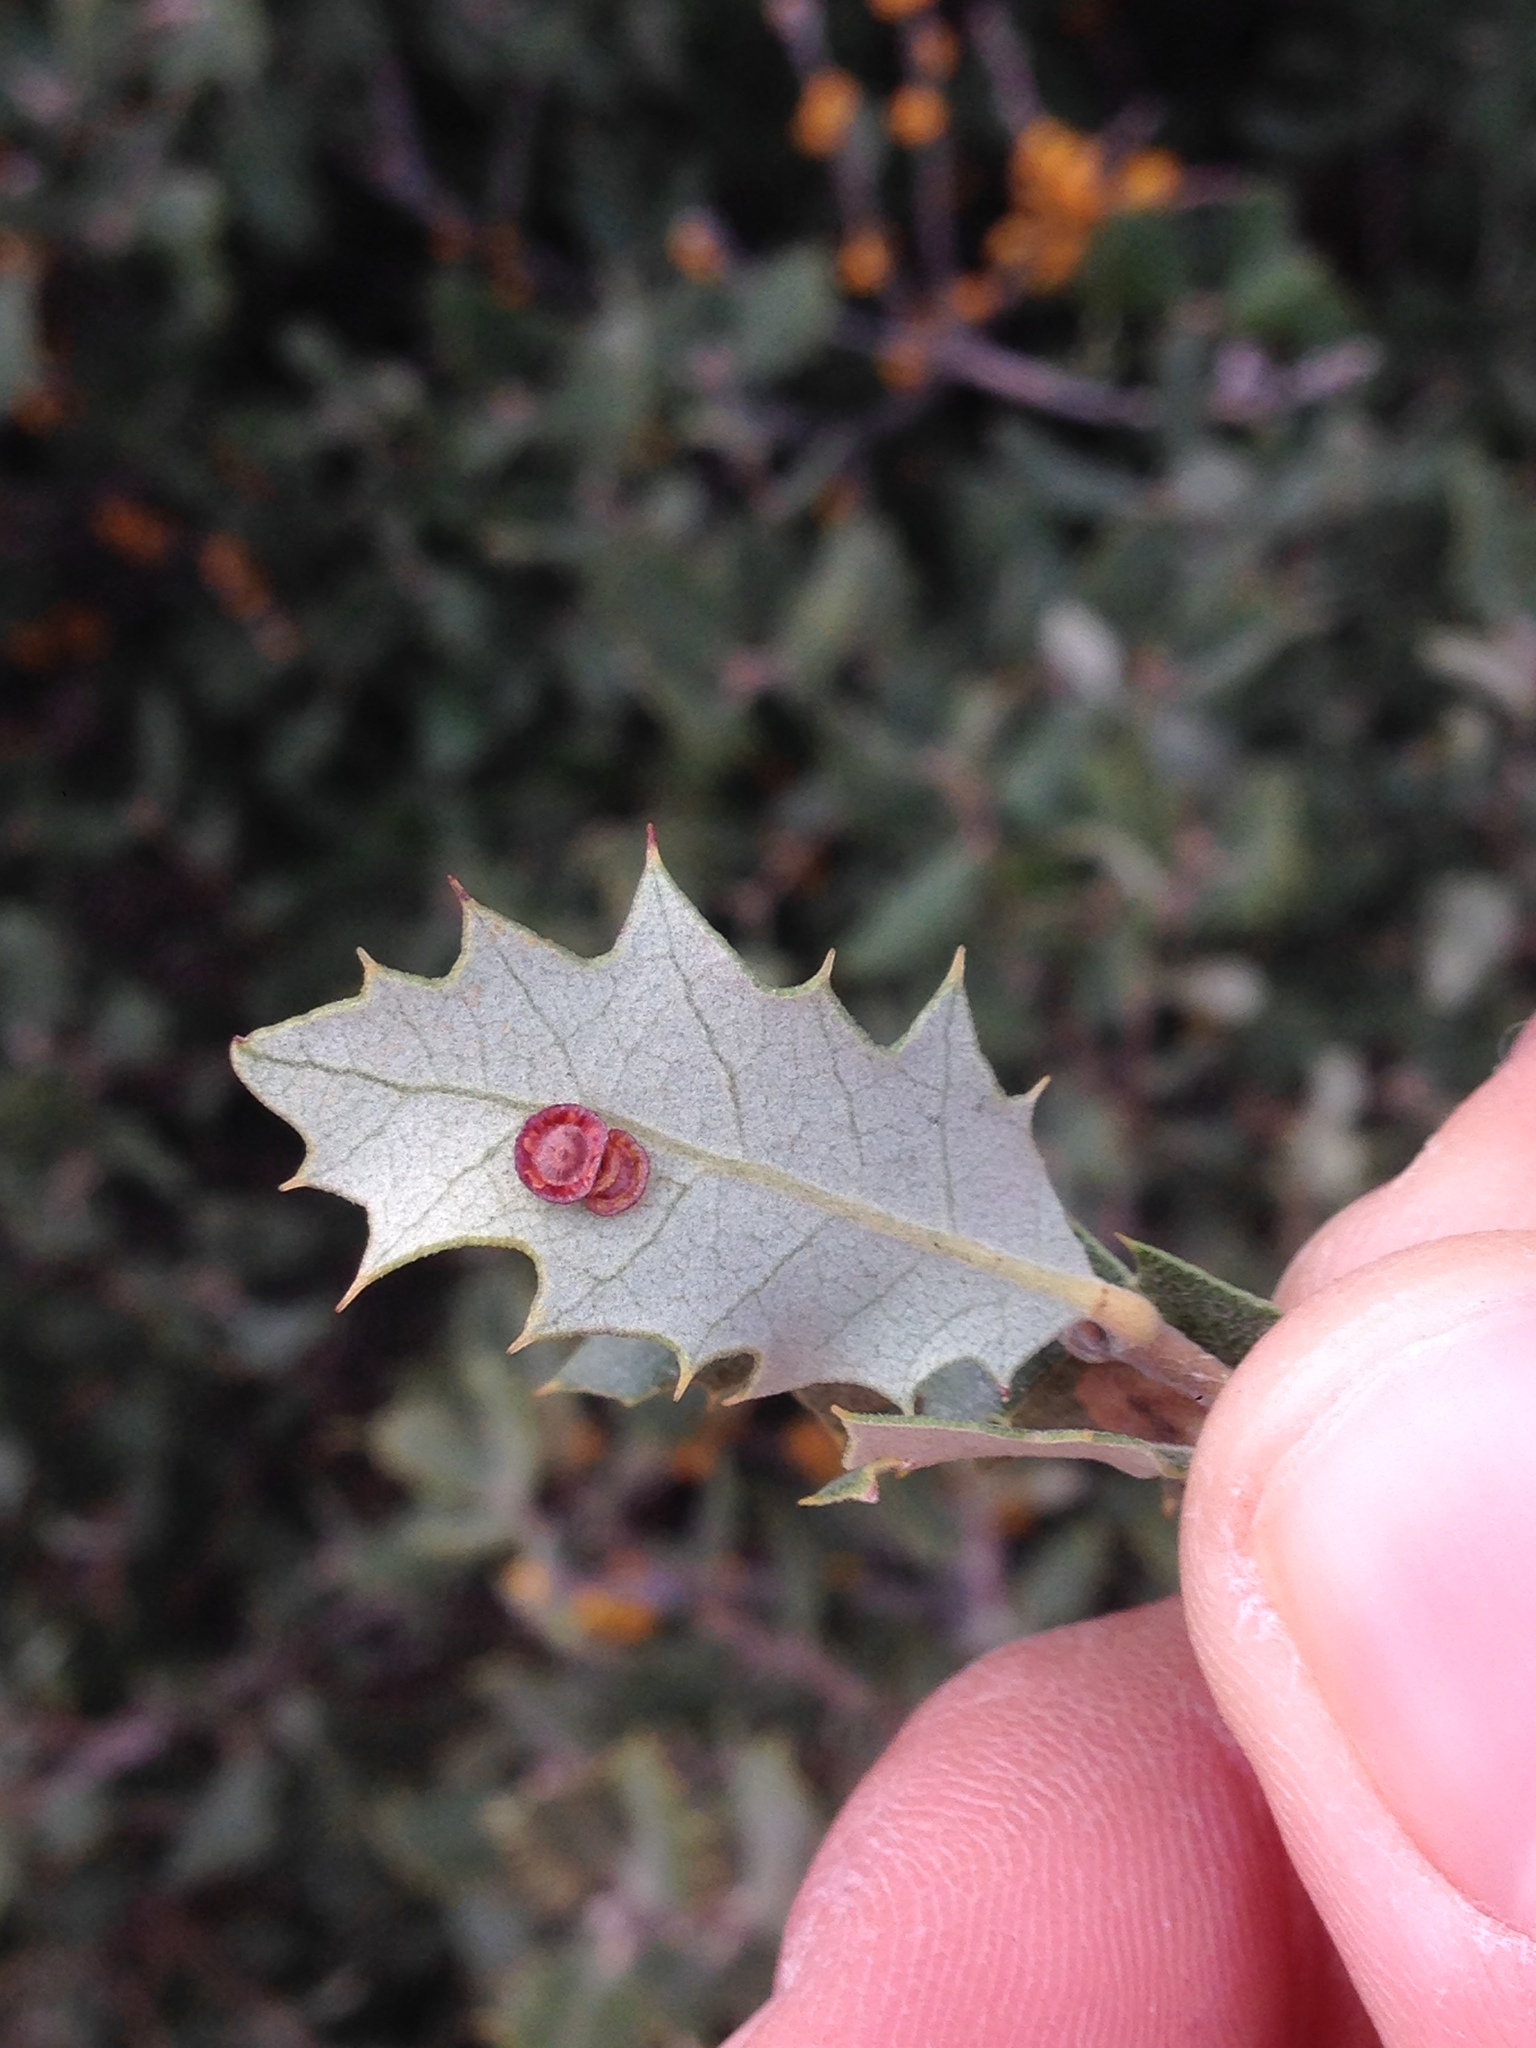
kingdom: Animalia
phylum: Arthropoda
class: Insecta
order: Hymenoptera
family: Cynipidae
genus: Andricus
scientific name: Andricus
